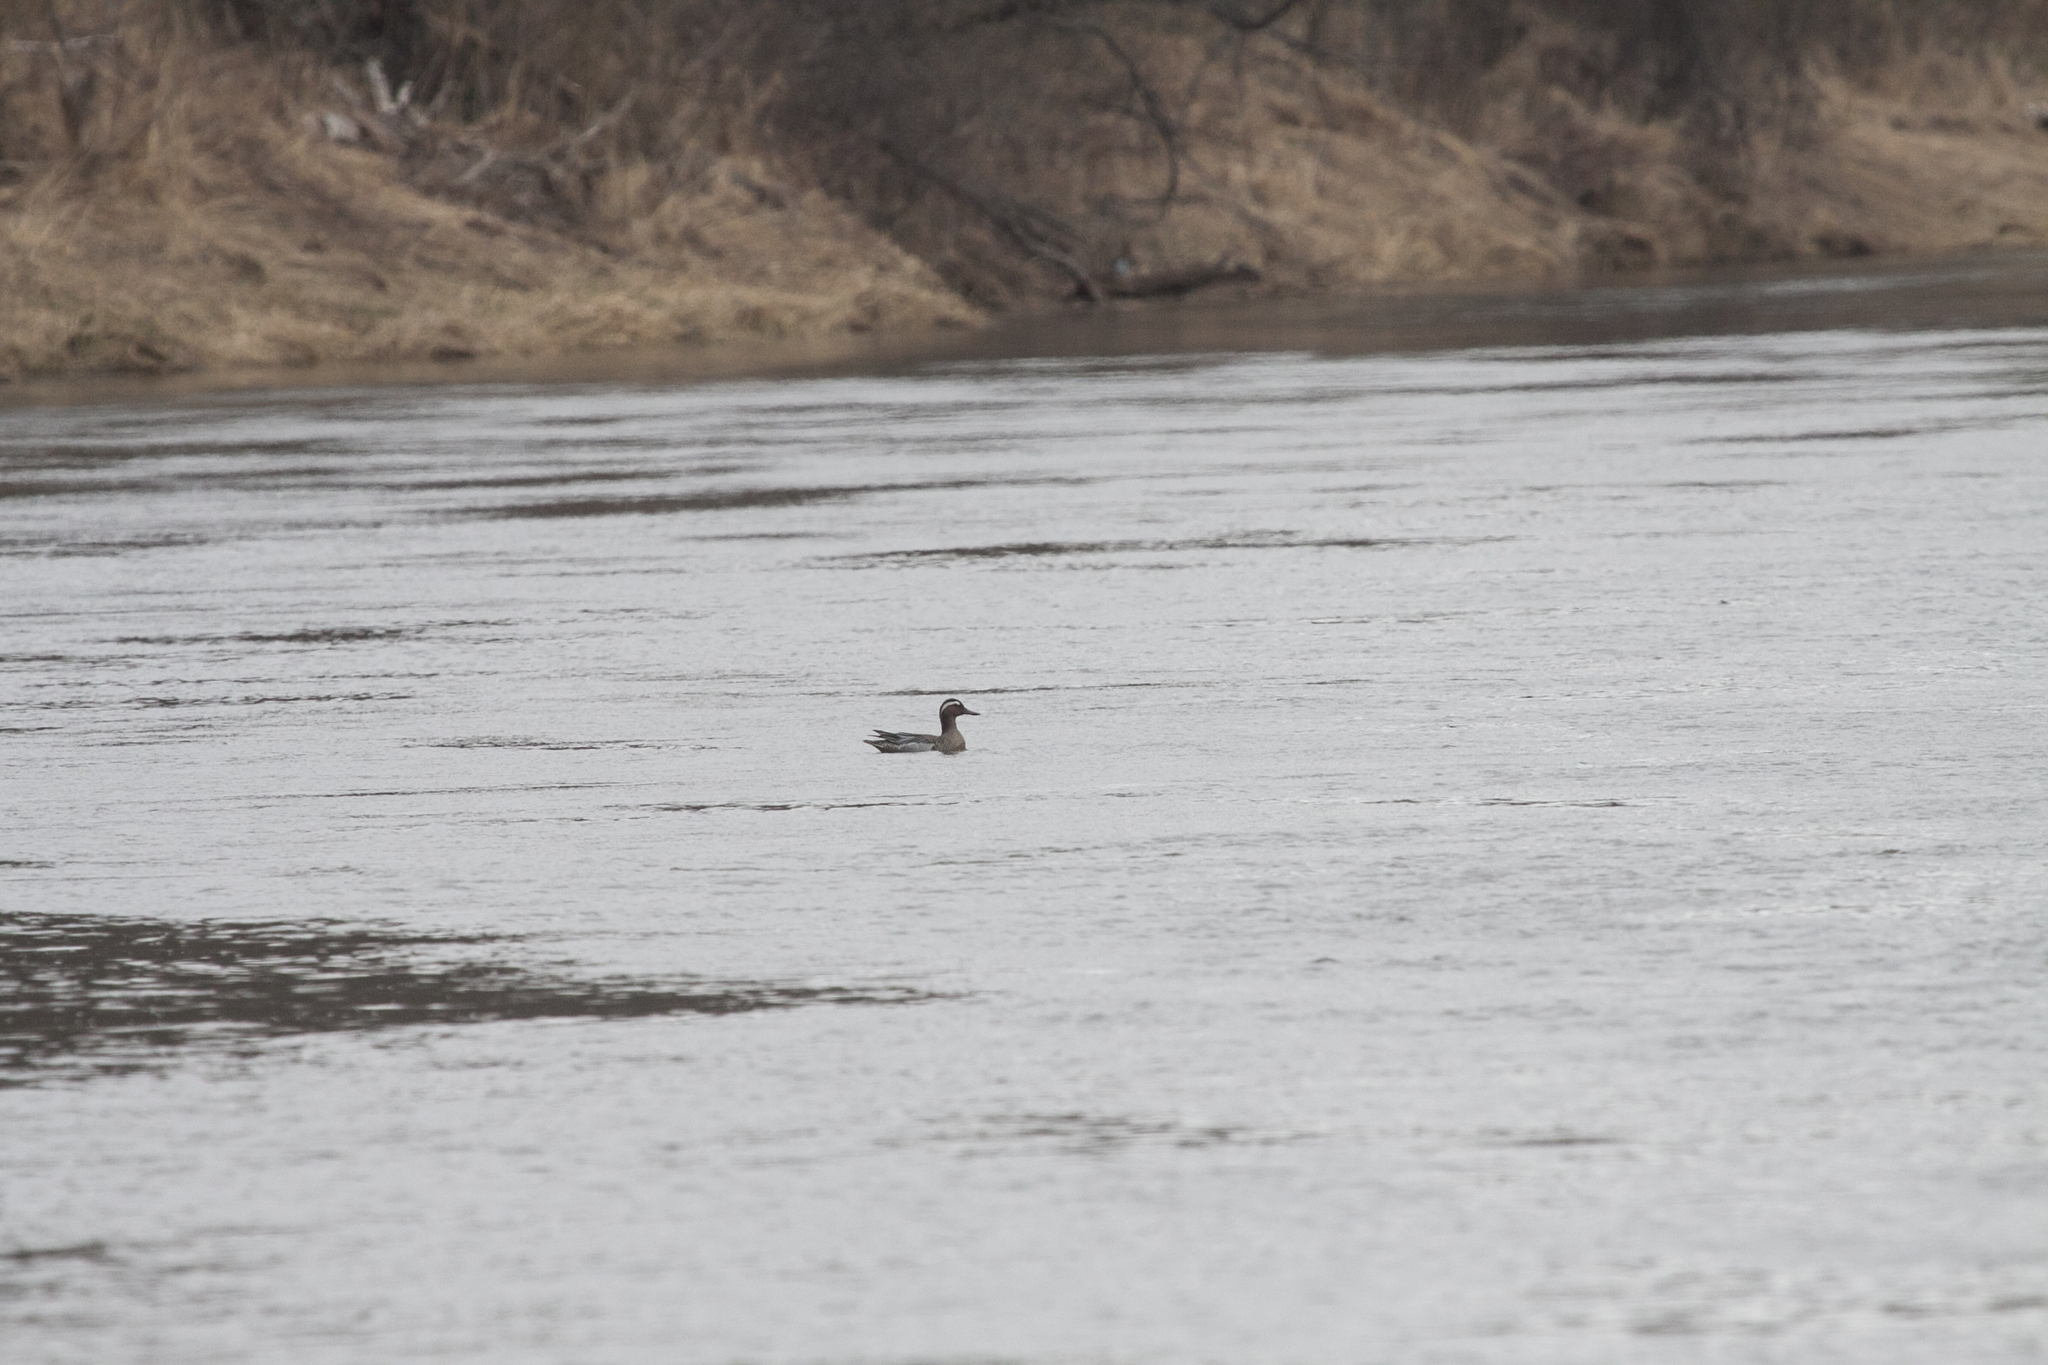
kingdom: Animalia
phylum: Chordata
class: Aves
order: Anseriformes
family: Anatidae
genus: Spatula
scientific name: Spatula querquedula
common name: Garganey
